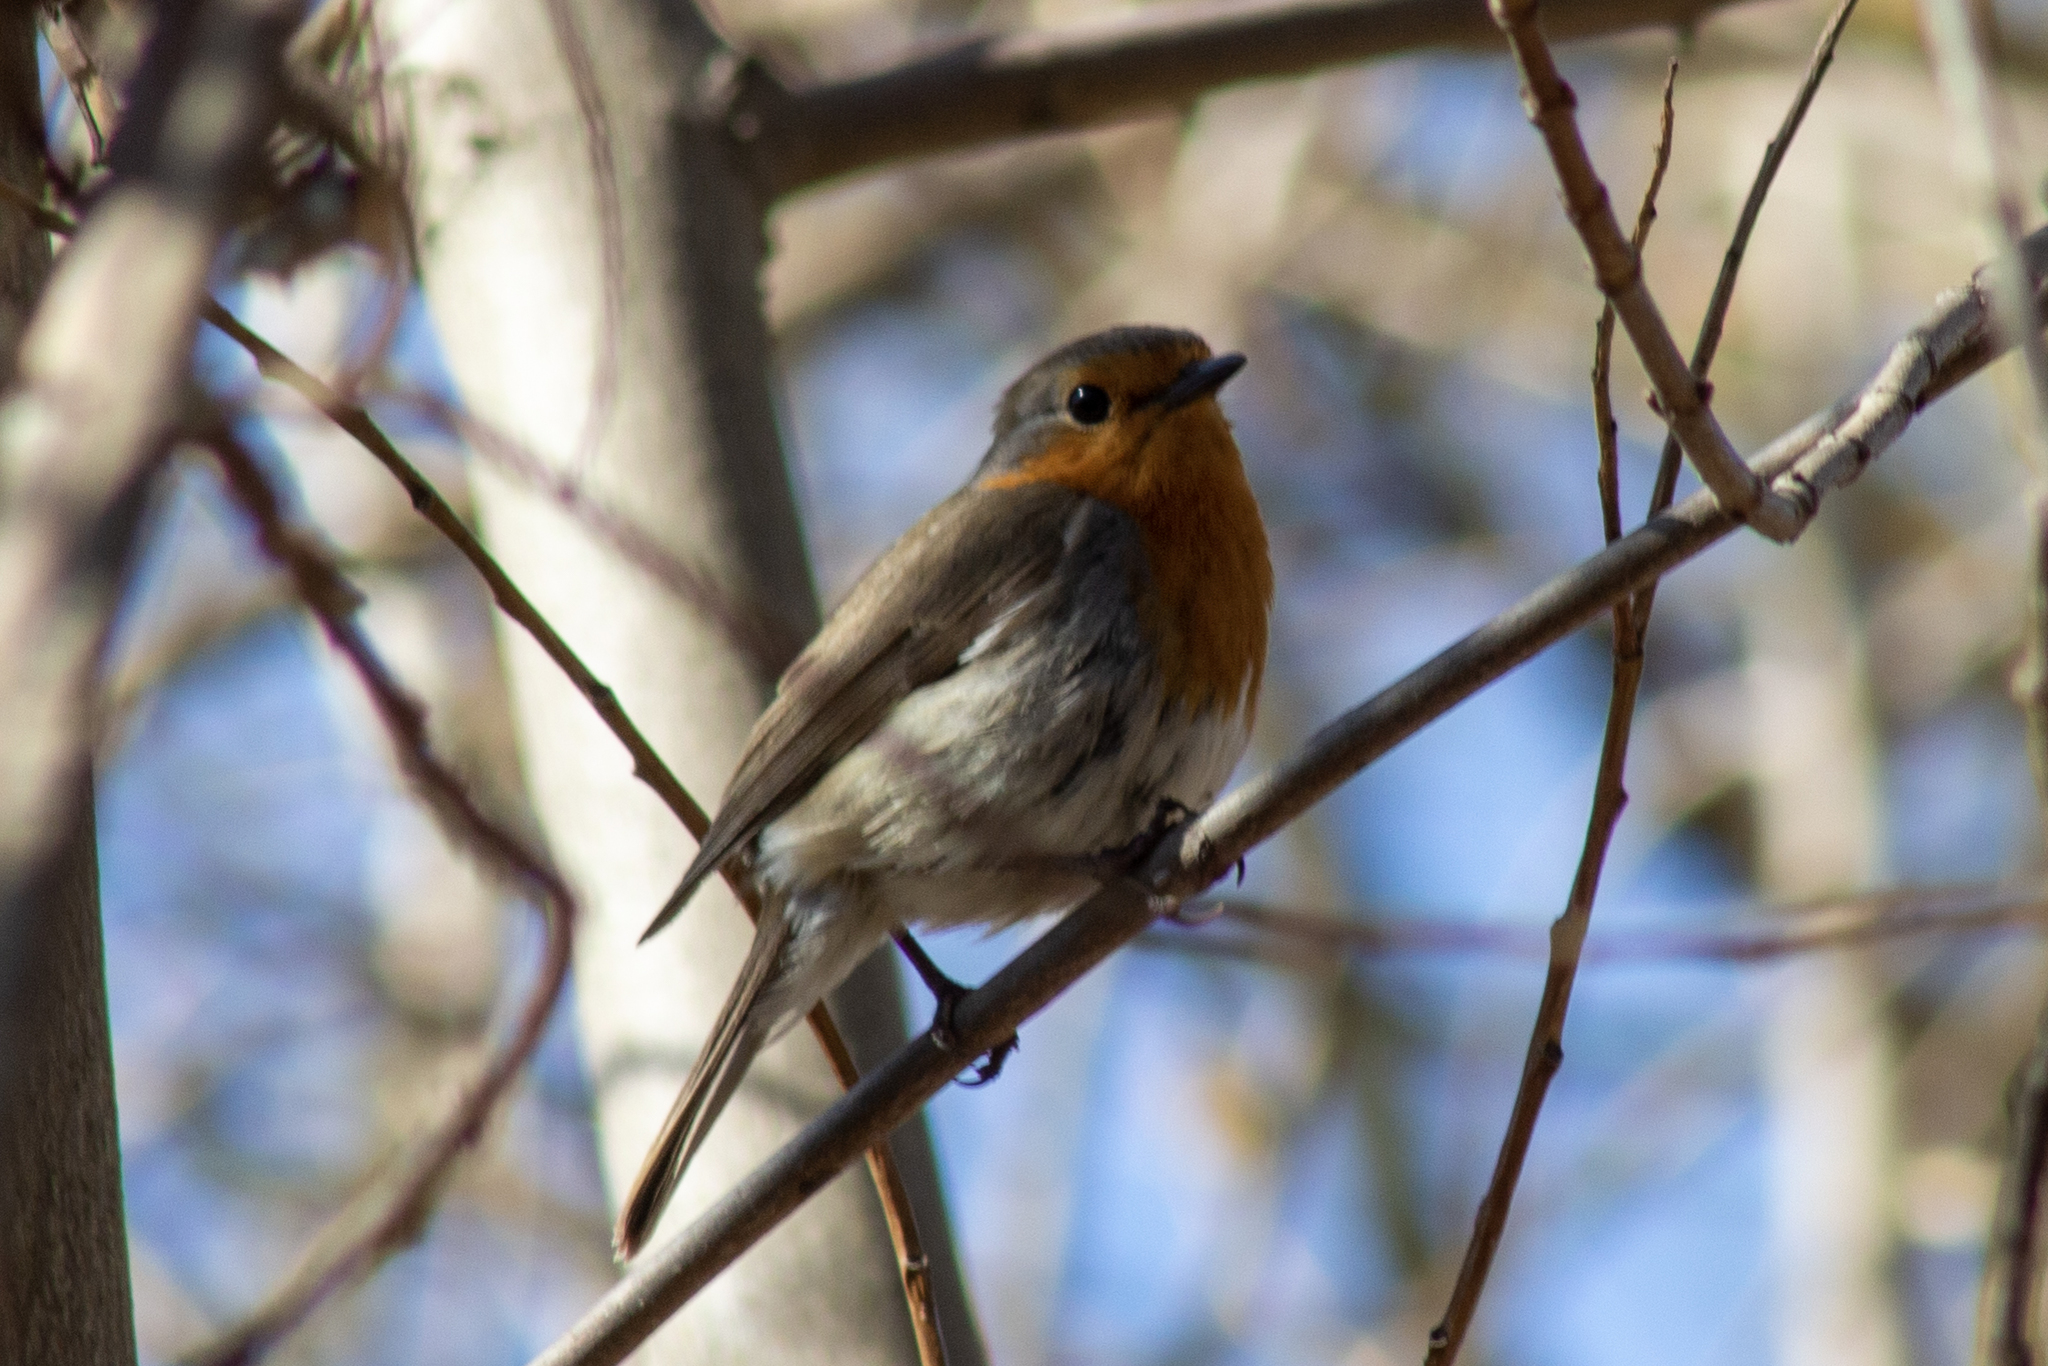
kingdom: Animalia
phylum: Chordata
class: Aves
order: Passeriformes
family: Muscicapidae
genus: Erithacus
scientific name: Erithacus rubecula
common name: European robin
